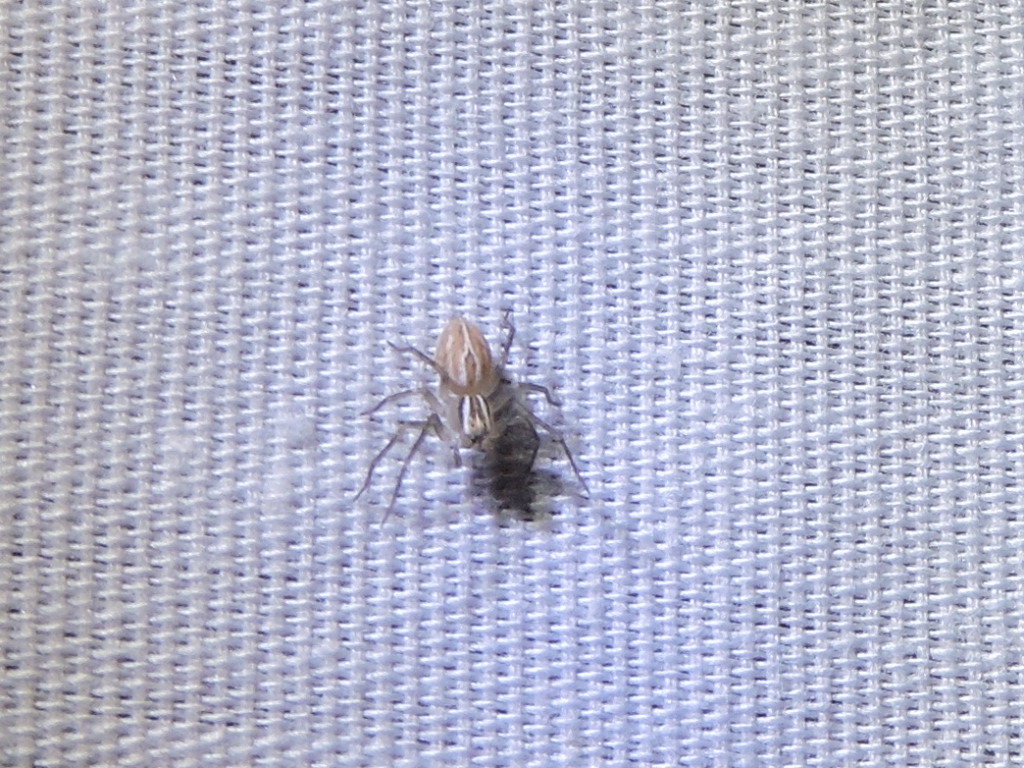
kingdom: Animalia
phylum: Arthropoda
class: Arachnida
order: Araneae
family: Oxyopidae
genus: Oxyopes
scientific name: Oxyopes salticus
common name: Lynx spiders
